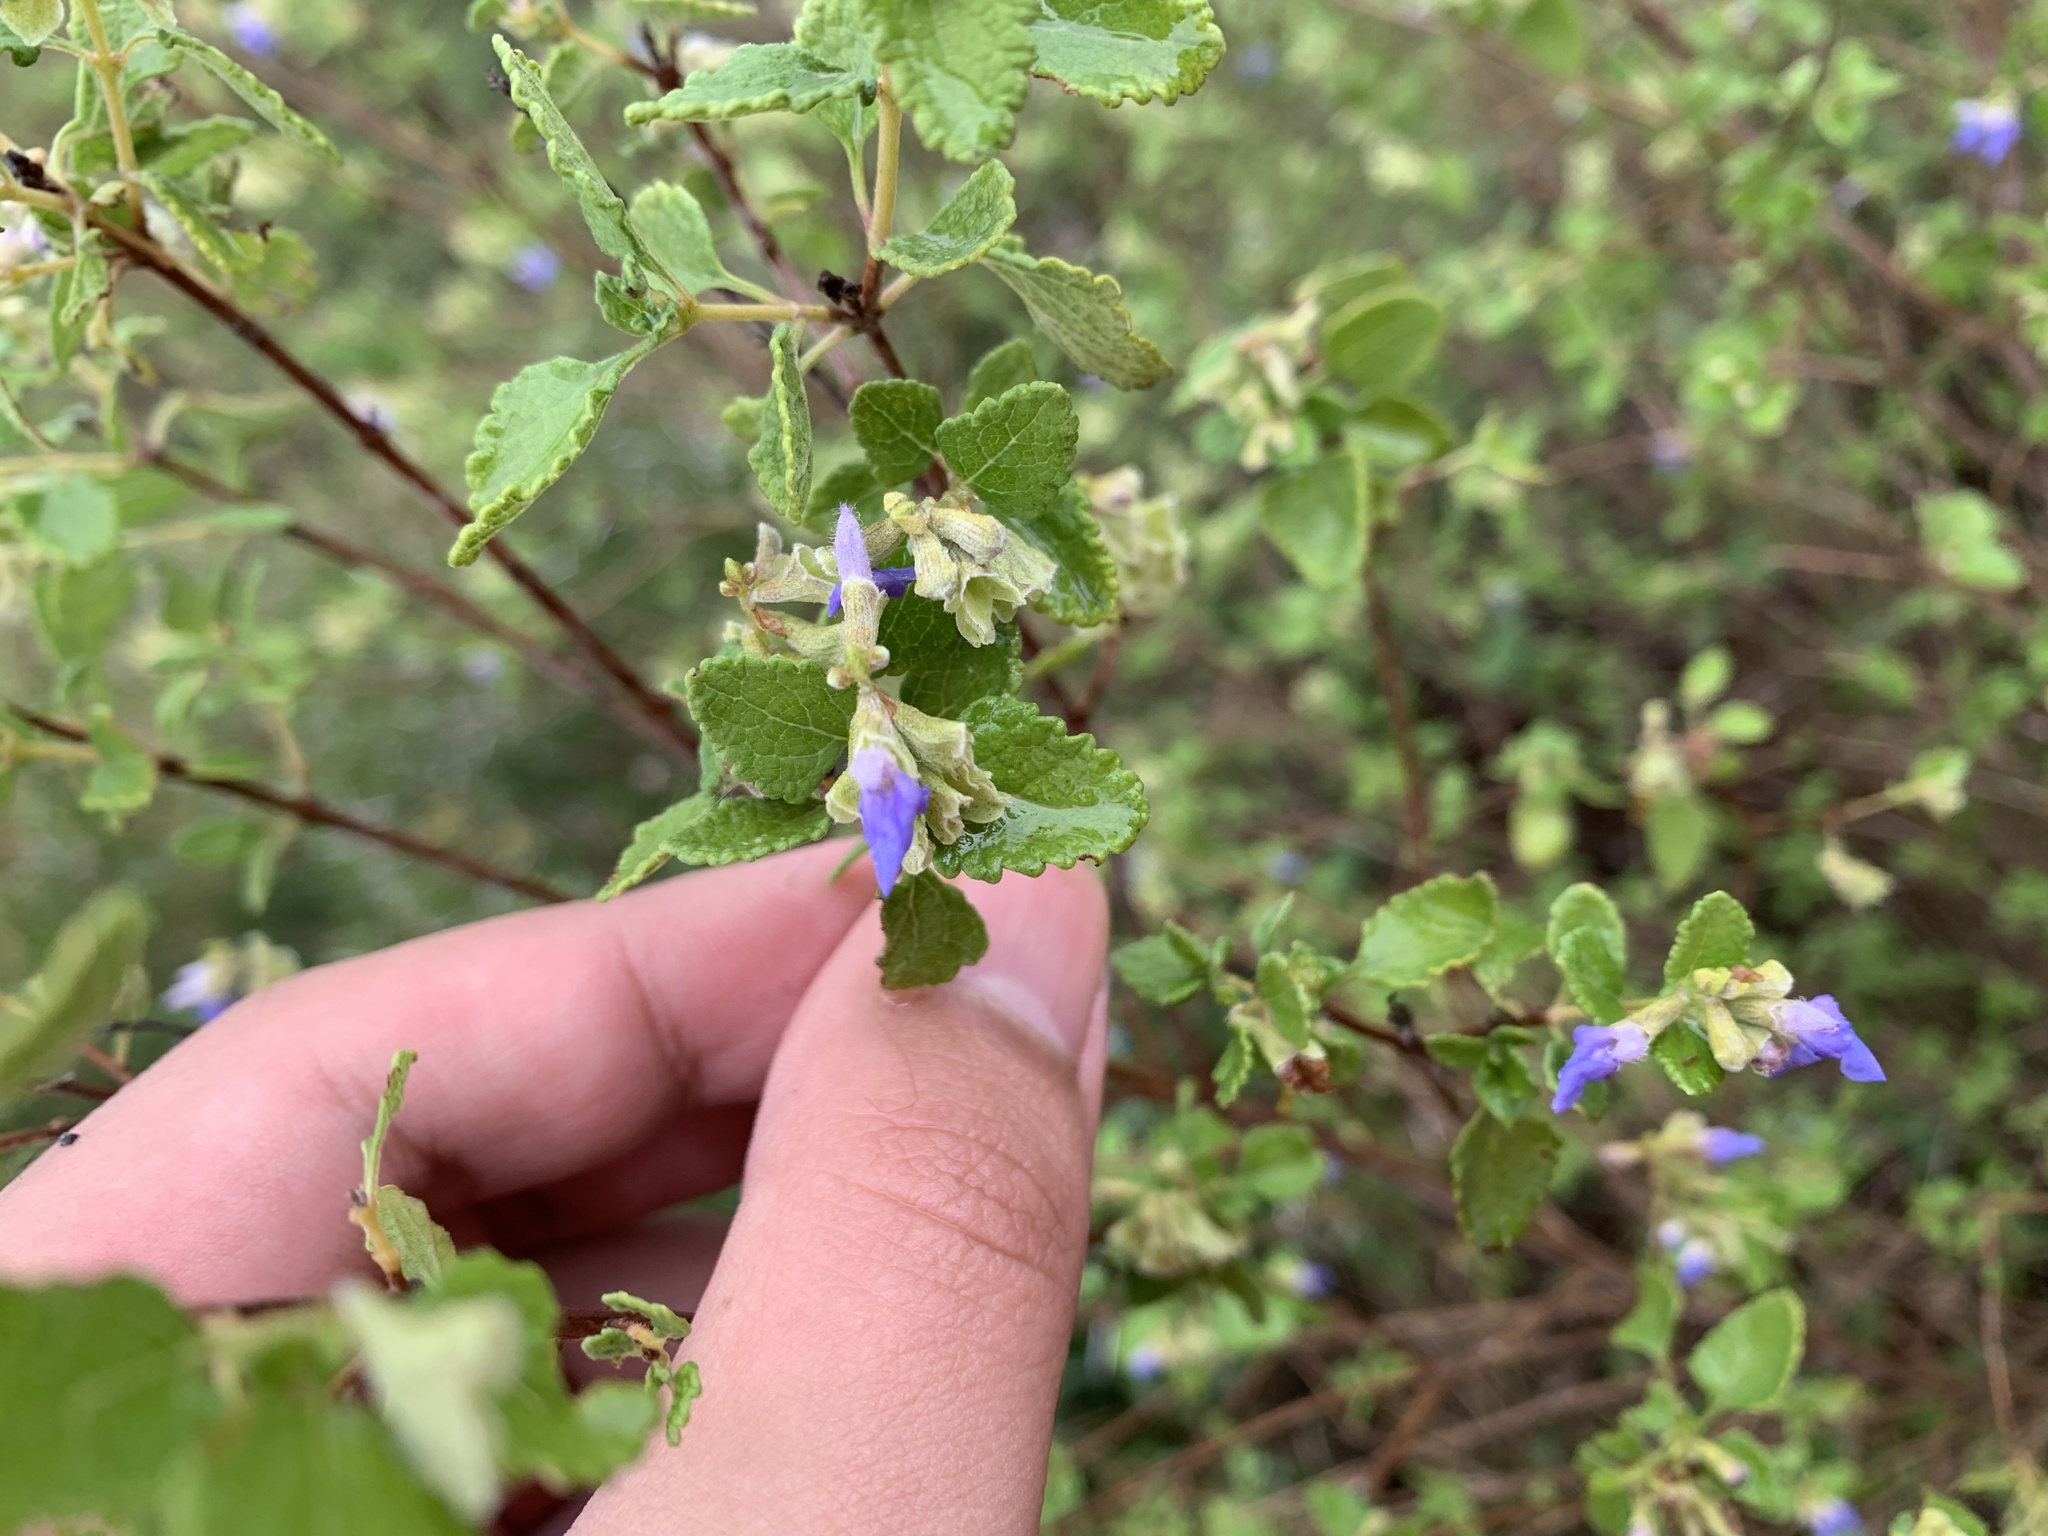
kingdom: Plantae
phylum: Tracheophyta
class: Magnoliopsida
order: Lamiales
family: Lamiaceae
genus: Salvia
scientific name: Salvia ballotiflora
